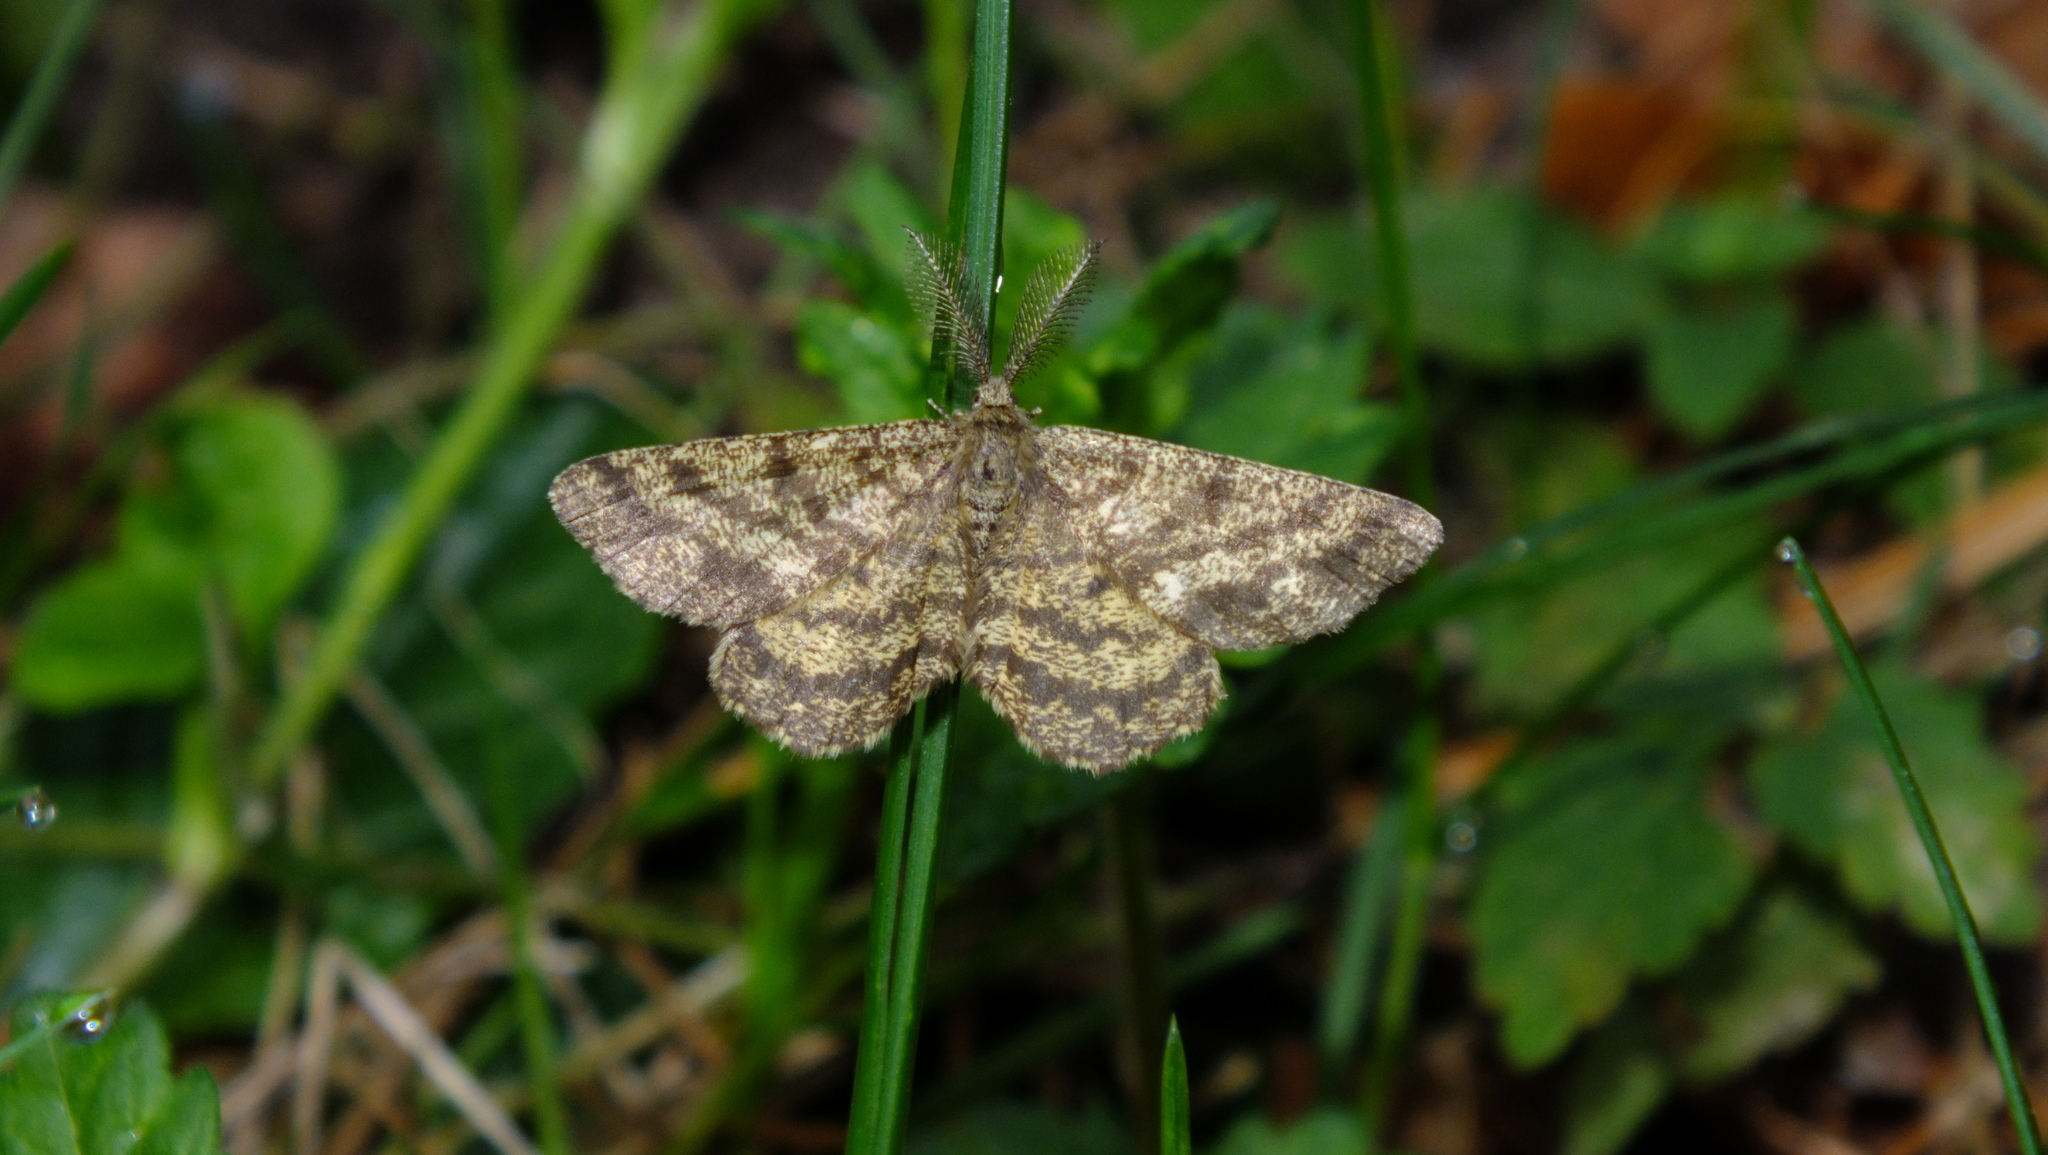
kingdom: Animalia
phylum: Arthropoda
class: Insecta
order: Lepidoptera
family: Geometridae
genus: Ematurga
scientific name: Ematurga atomaria
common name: Common heath
